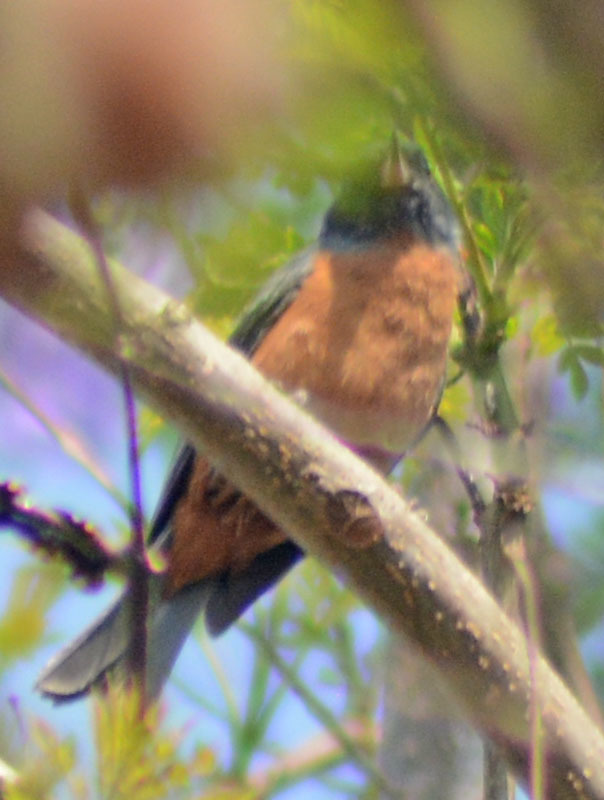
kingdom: Animalia
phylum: Chordata
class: Aves
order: Passeriformes
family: Thraupidae
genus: Diglossa
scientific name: Diglossa baritula
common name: Cinnamon-bellied flowerpiercer
